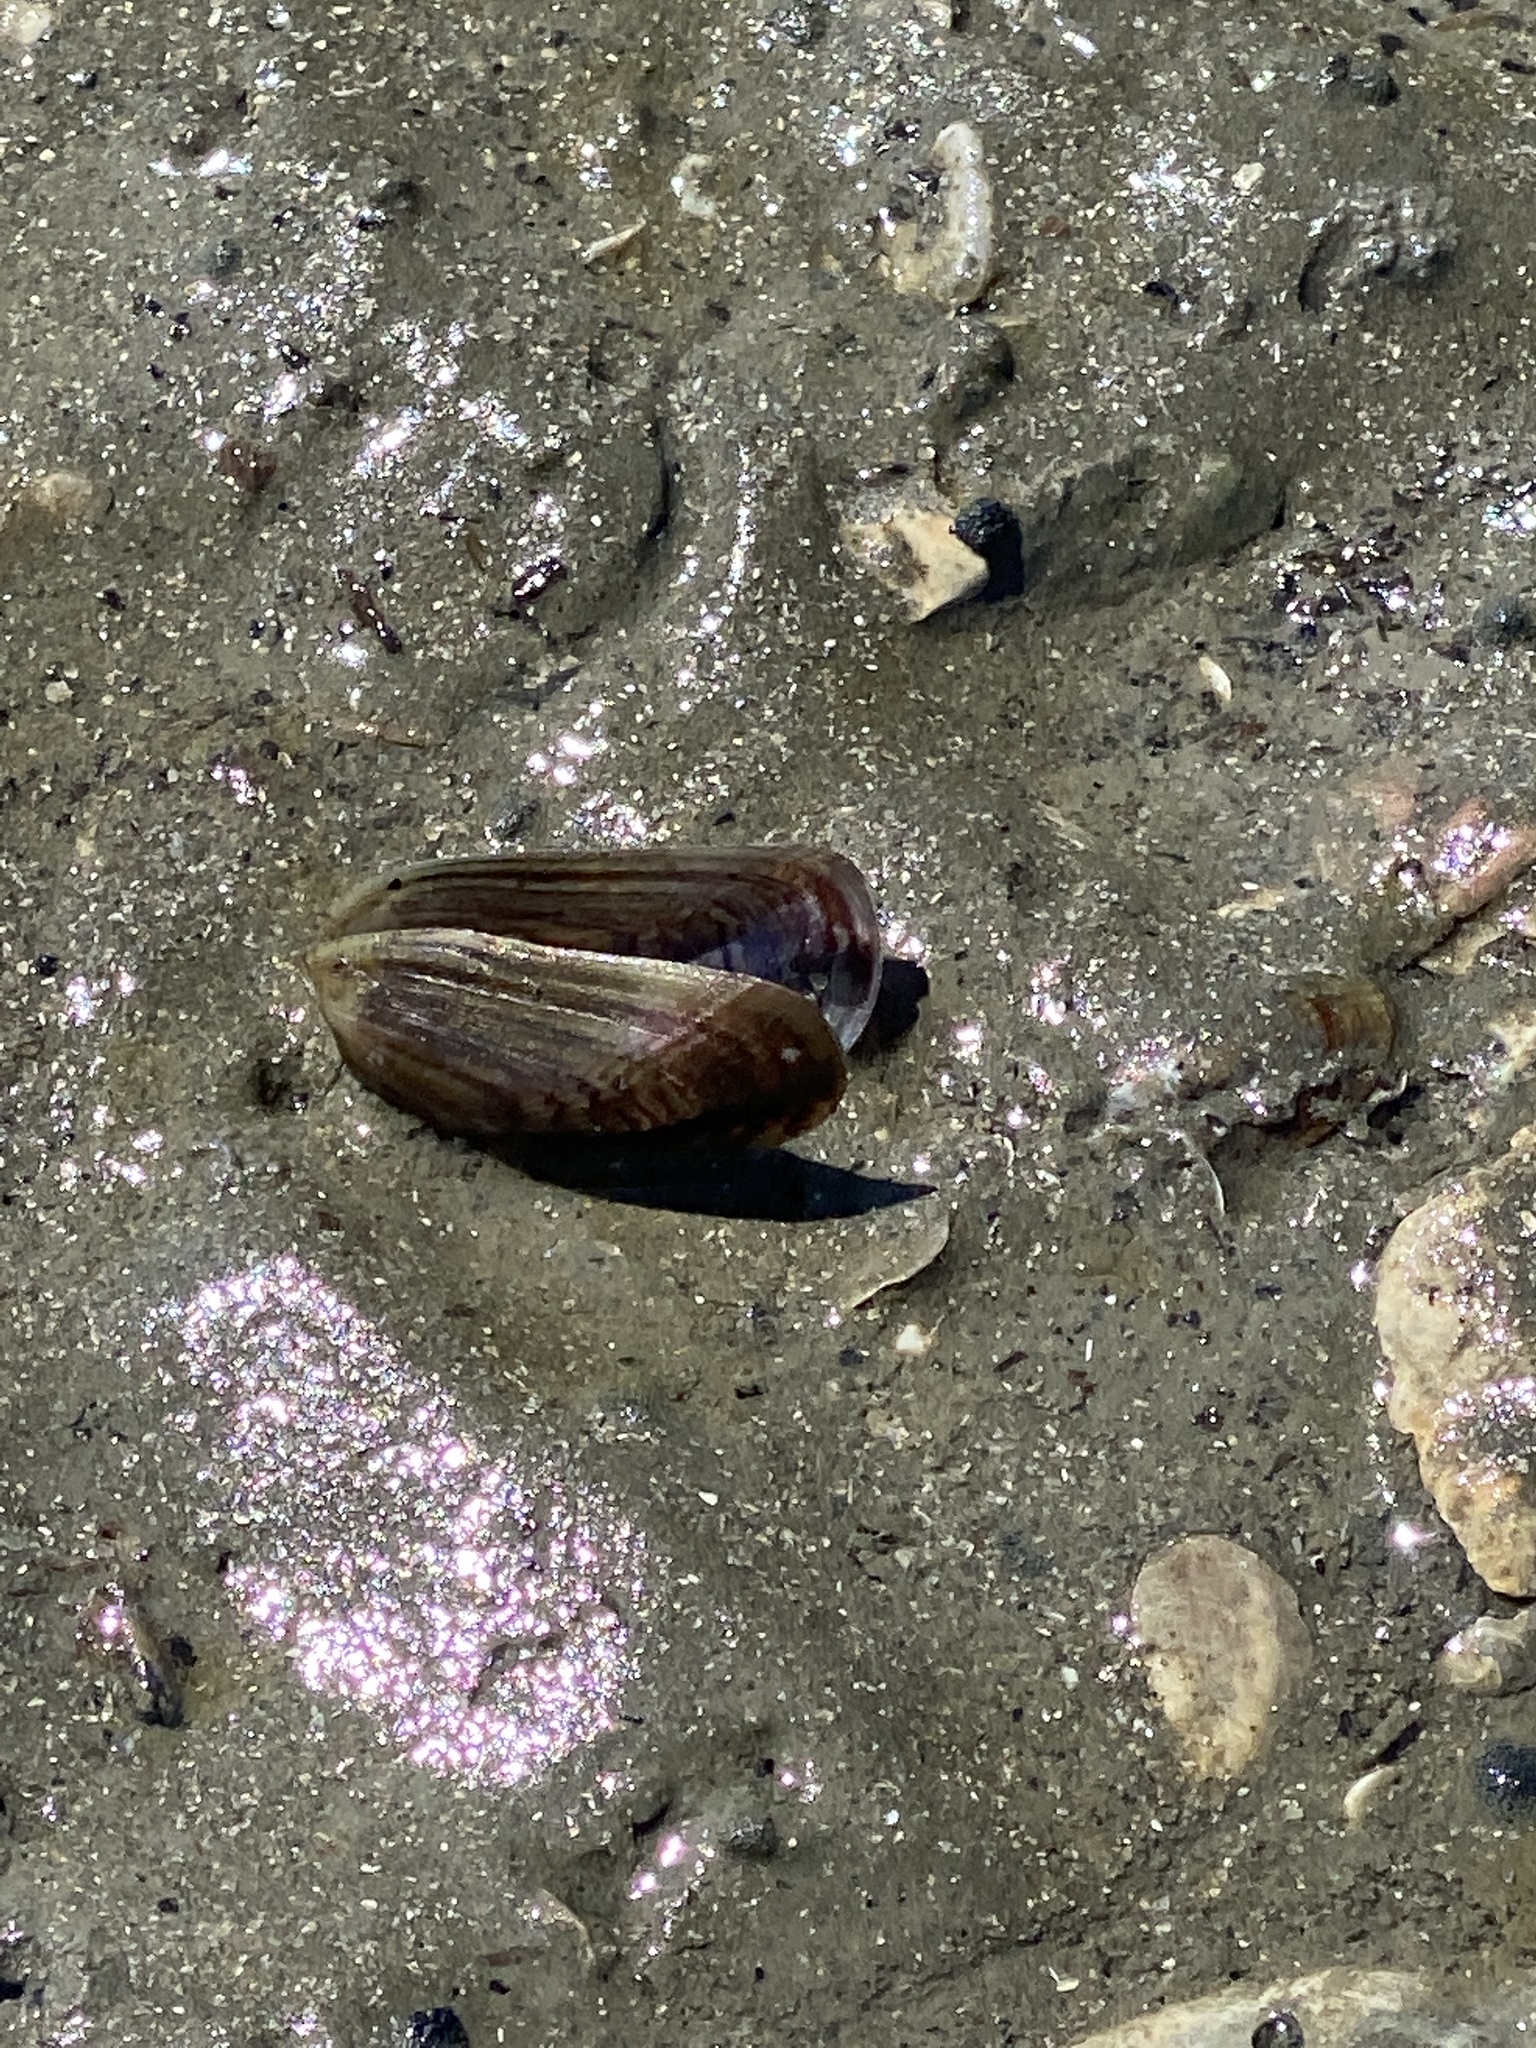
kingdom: Animalia
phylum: Mollusca
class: Bivalvia
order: Mytilida
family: Mytilidae
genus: Arcuatula
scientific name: Arcuatula senhousia
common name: Asian mussel
